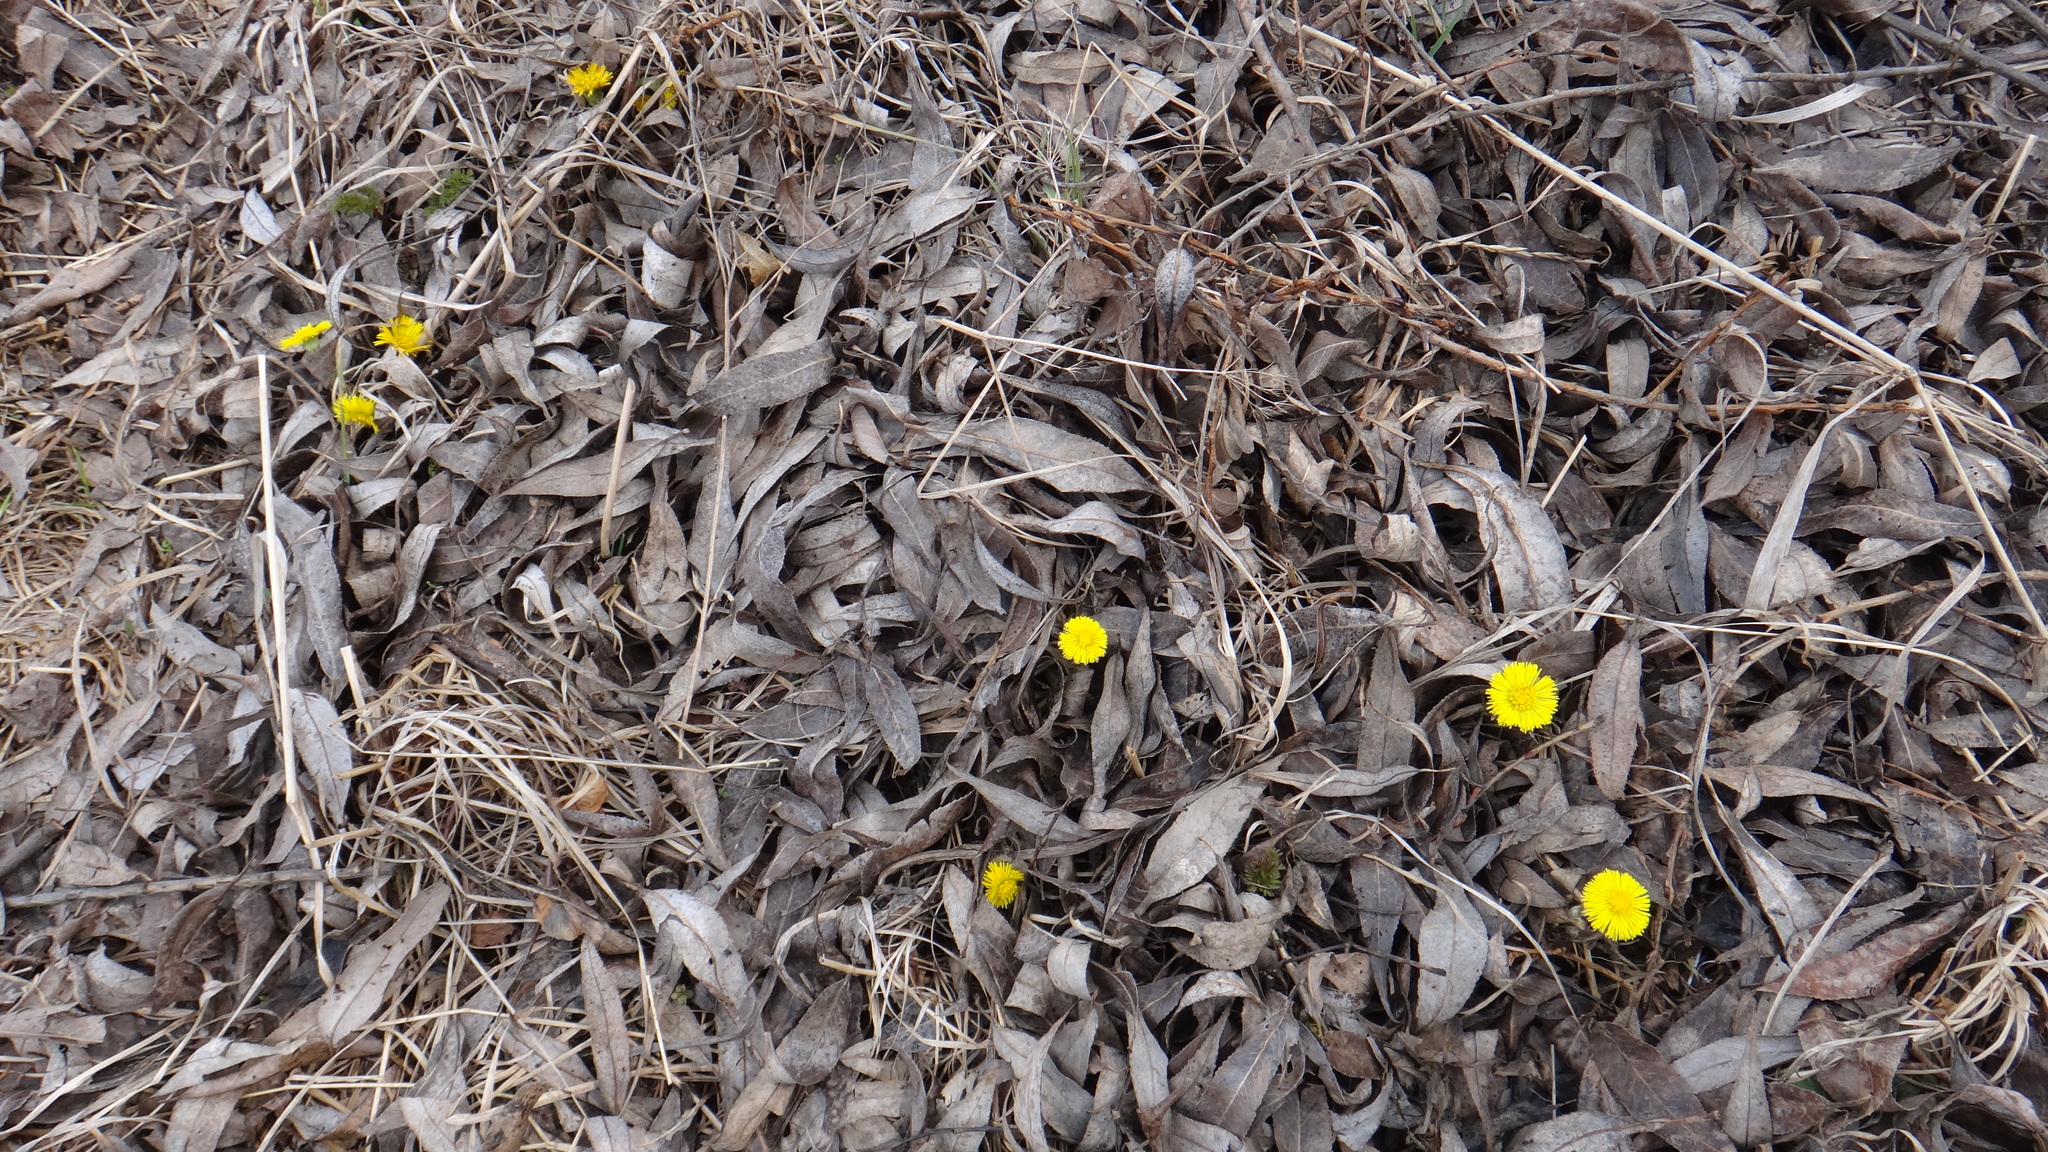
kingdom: Plantae
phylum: Tracheophyta
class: Magnoliopsida
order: Asterales
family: Asteraceae
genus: Tussilago
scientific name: Tussilago farfara
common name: Coltsfoot
